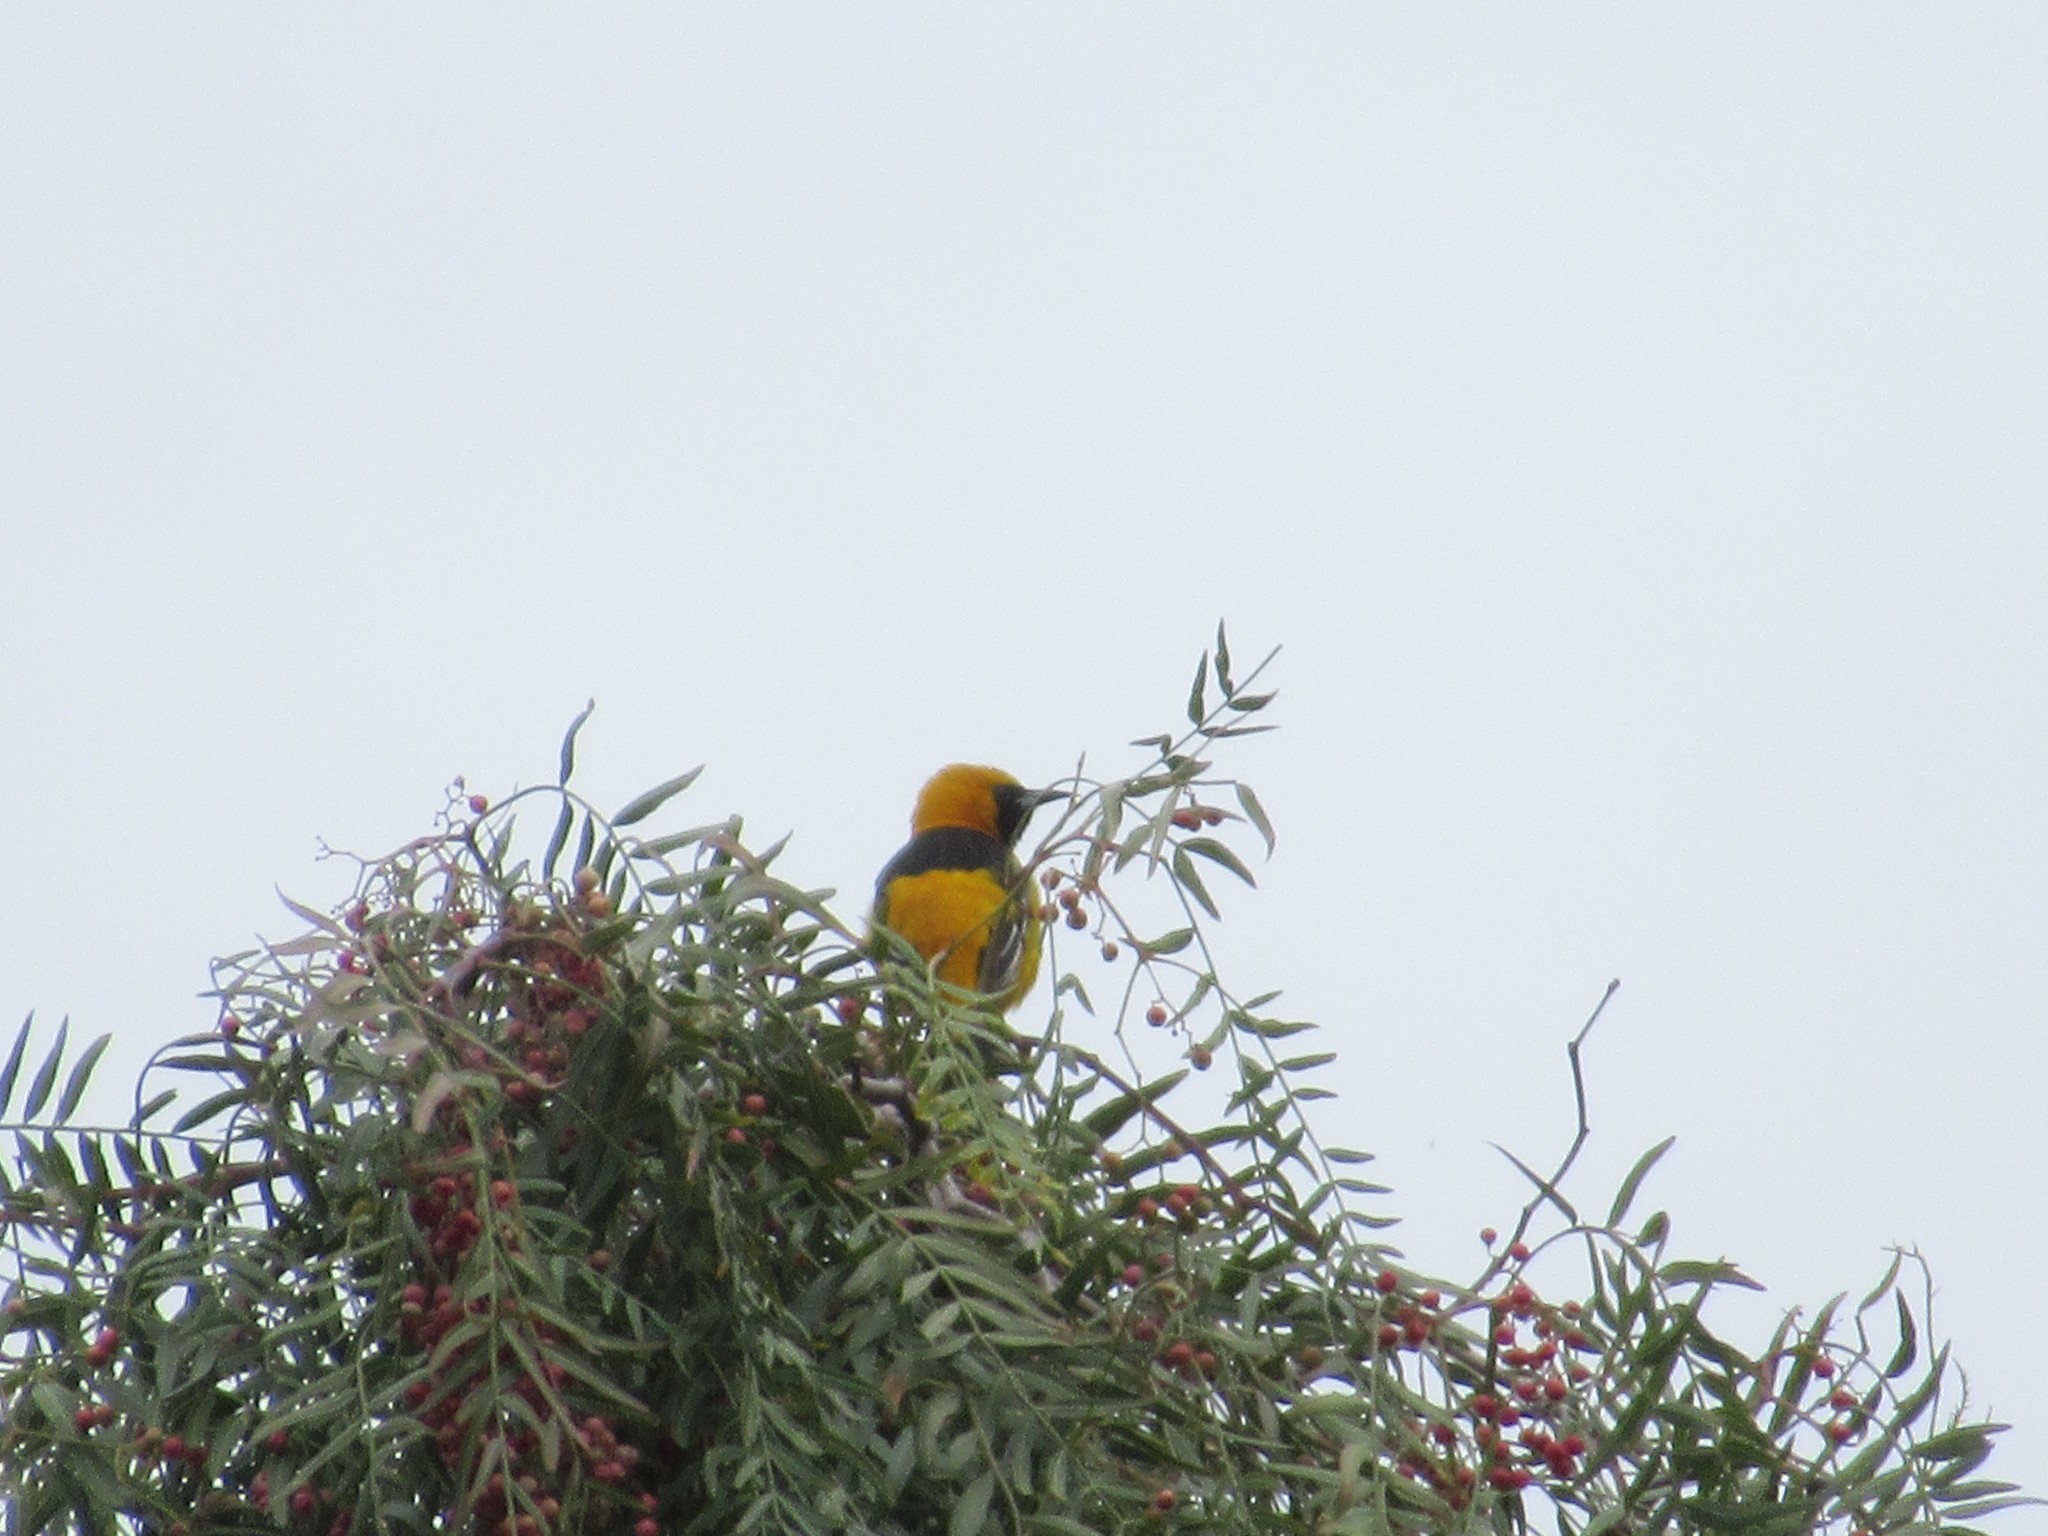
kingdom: Animalia
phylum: Chordata
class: Aves
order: Passeriformes
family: Icteridae
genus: Icterus
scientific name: Icterus cucullatus
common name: Hooded oriole
